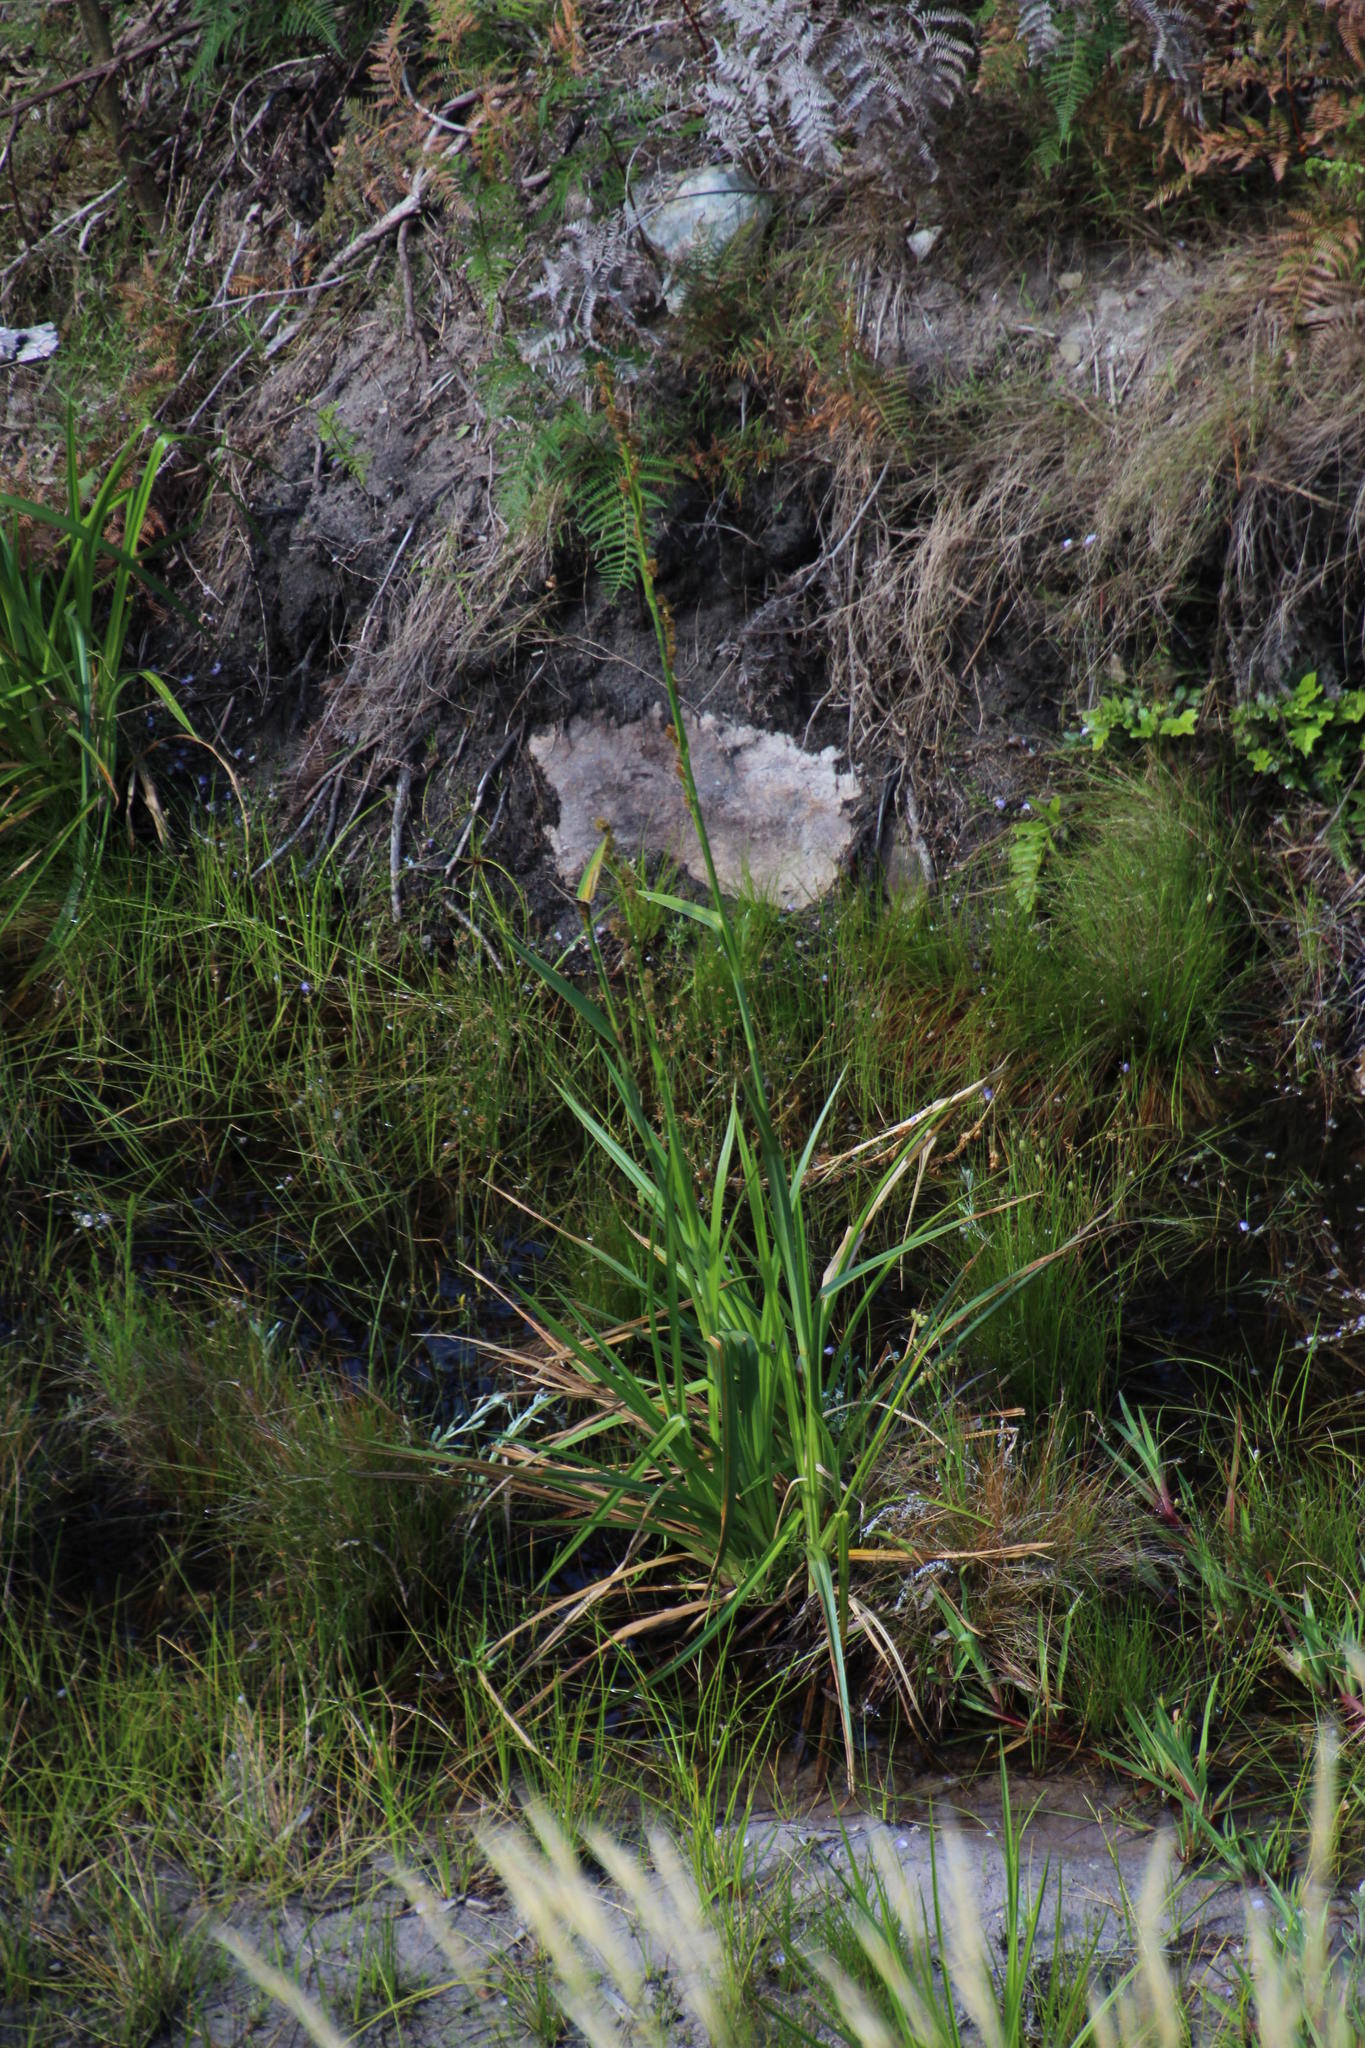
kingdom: Plantae
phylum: Tracheophyta
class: Liliopsida
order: Poales
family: Cyperaceae
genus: Carpha
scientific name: Carpha glomerata
